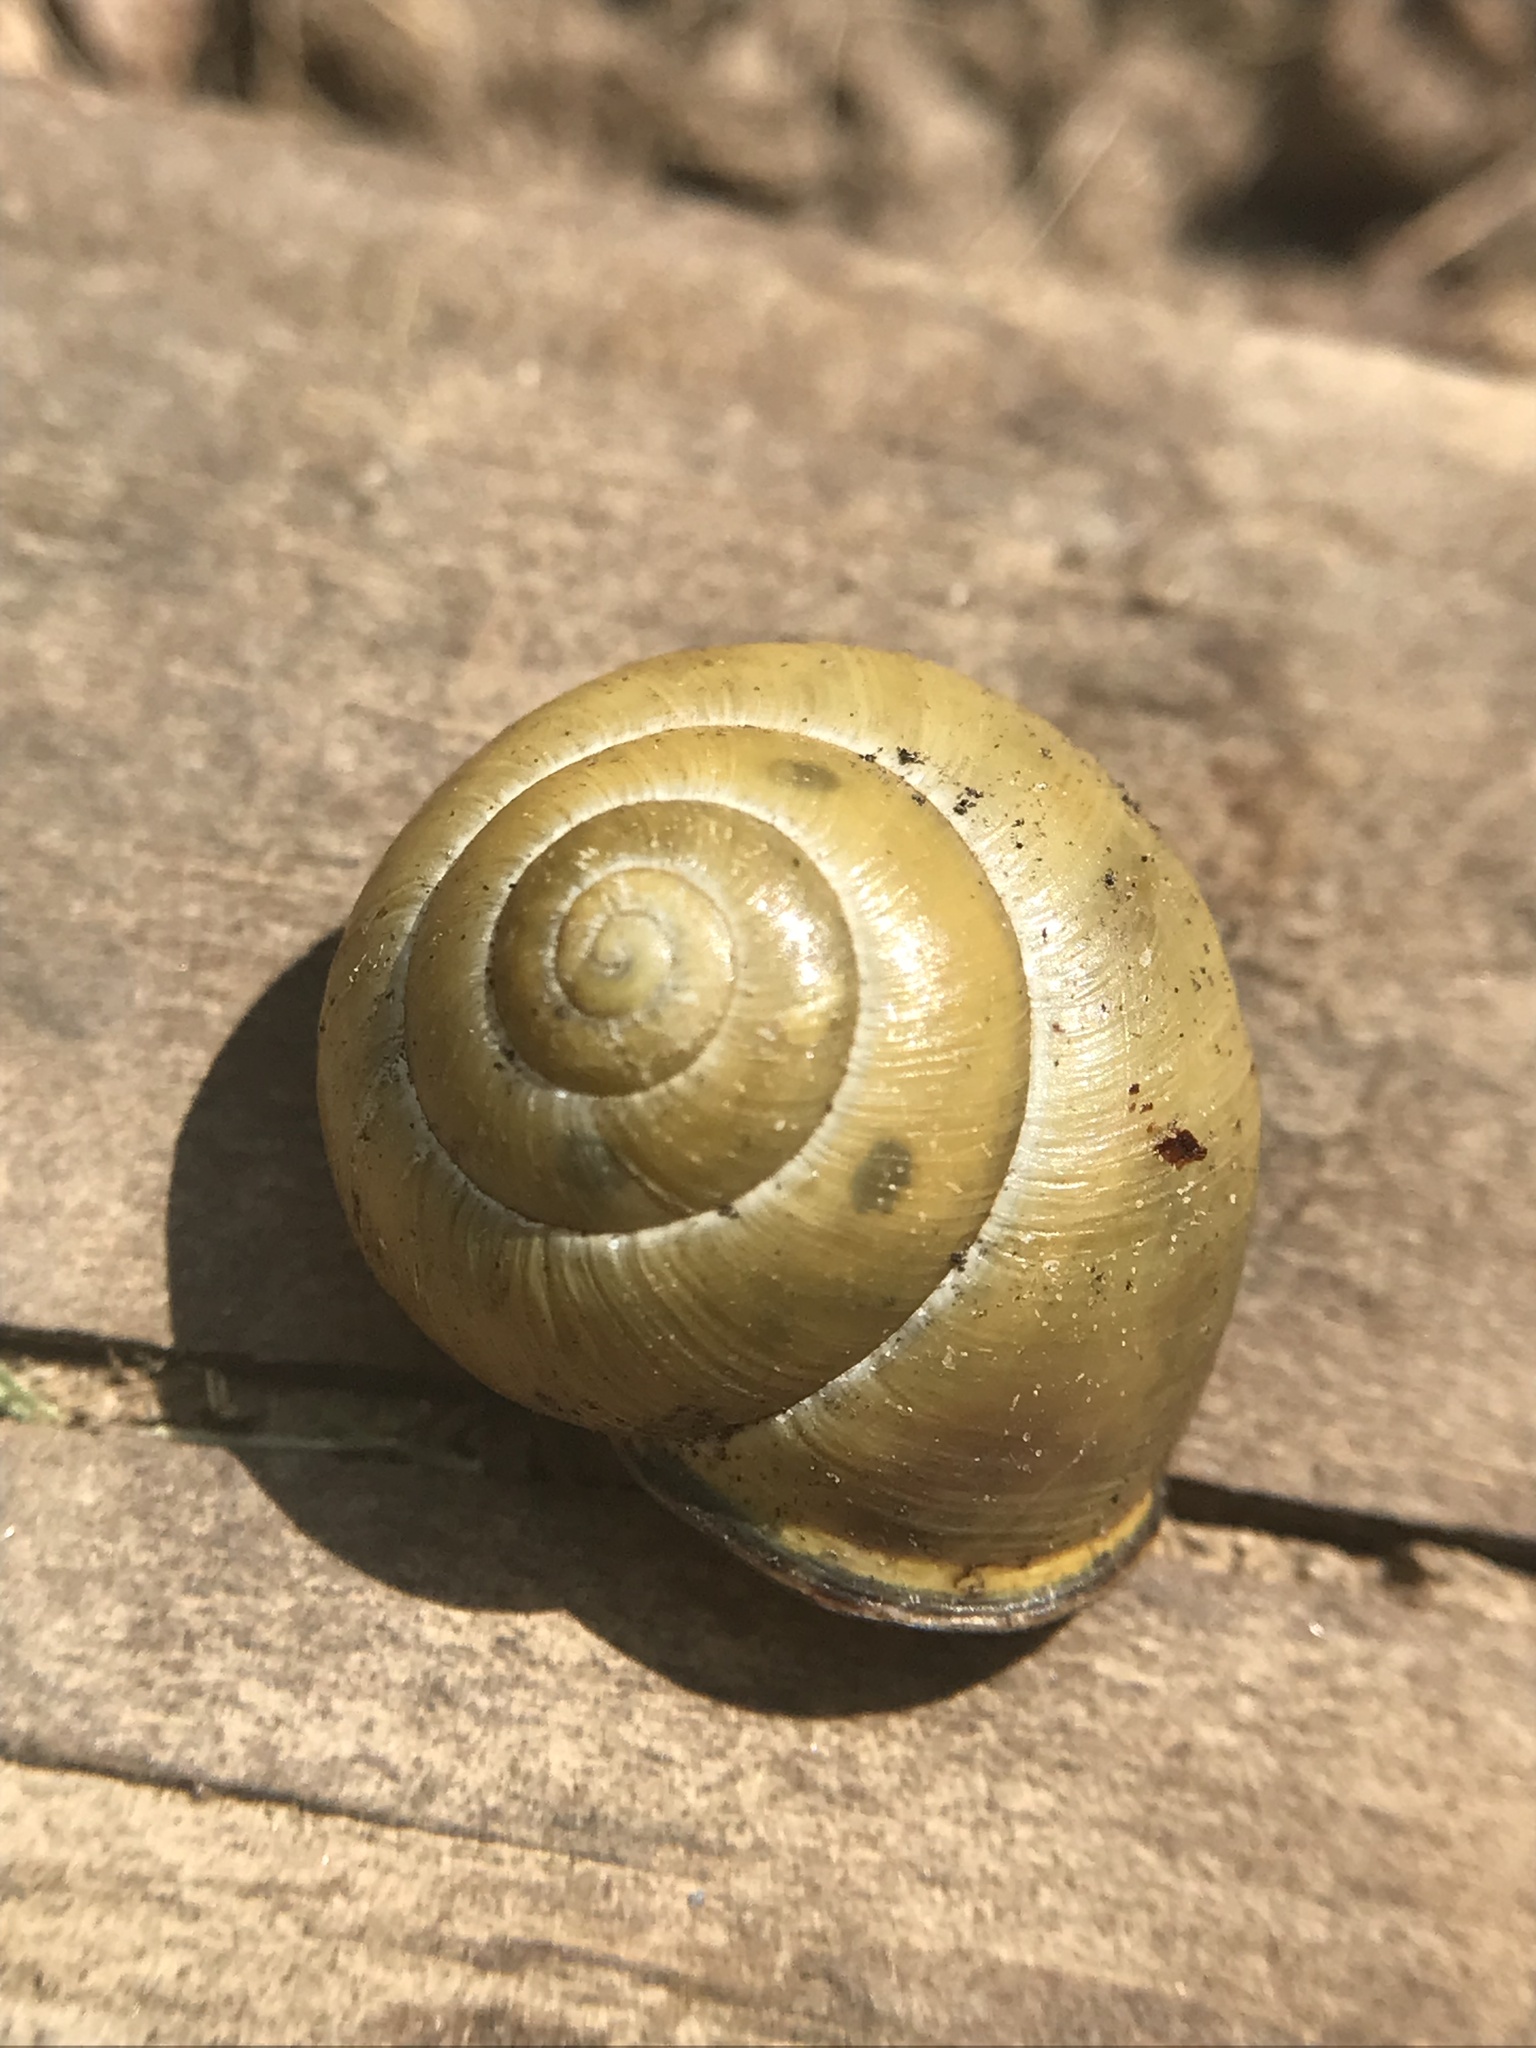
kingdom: Animalia
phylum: Mollusca
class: Gastropoda
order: Stylommatophora
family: Helicidae
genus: Cepaea
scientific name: Cepaea nemoralis
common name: Grovesnail
